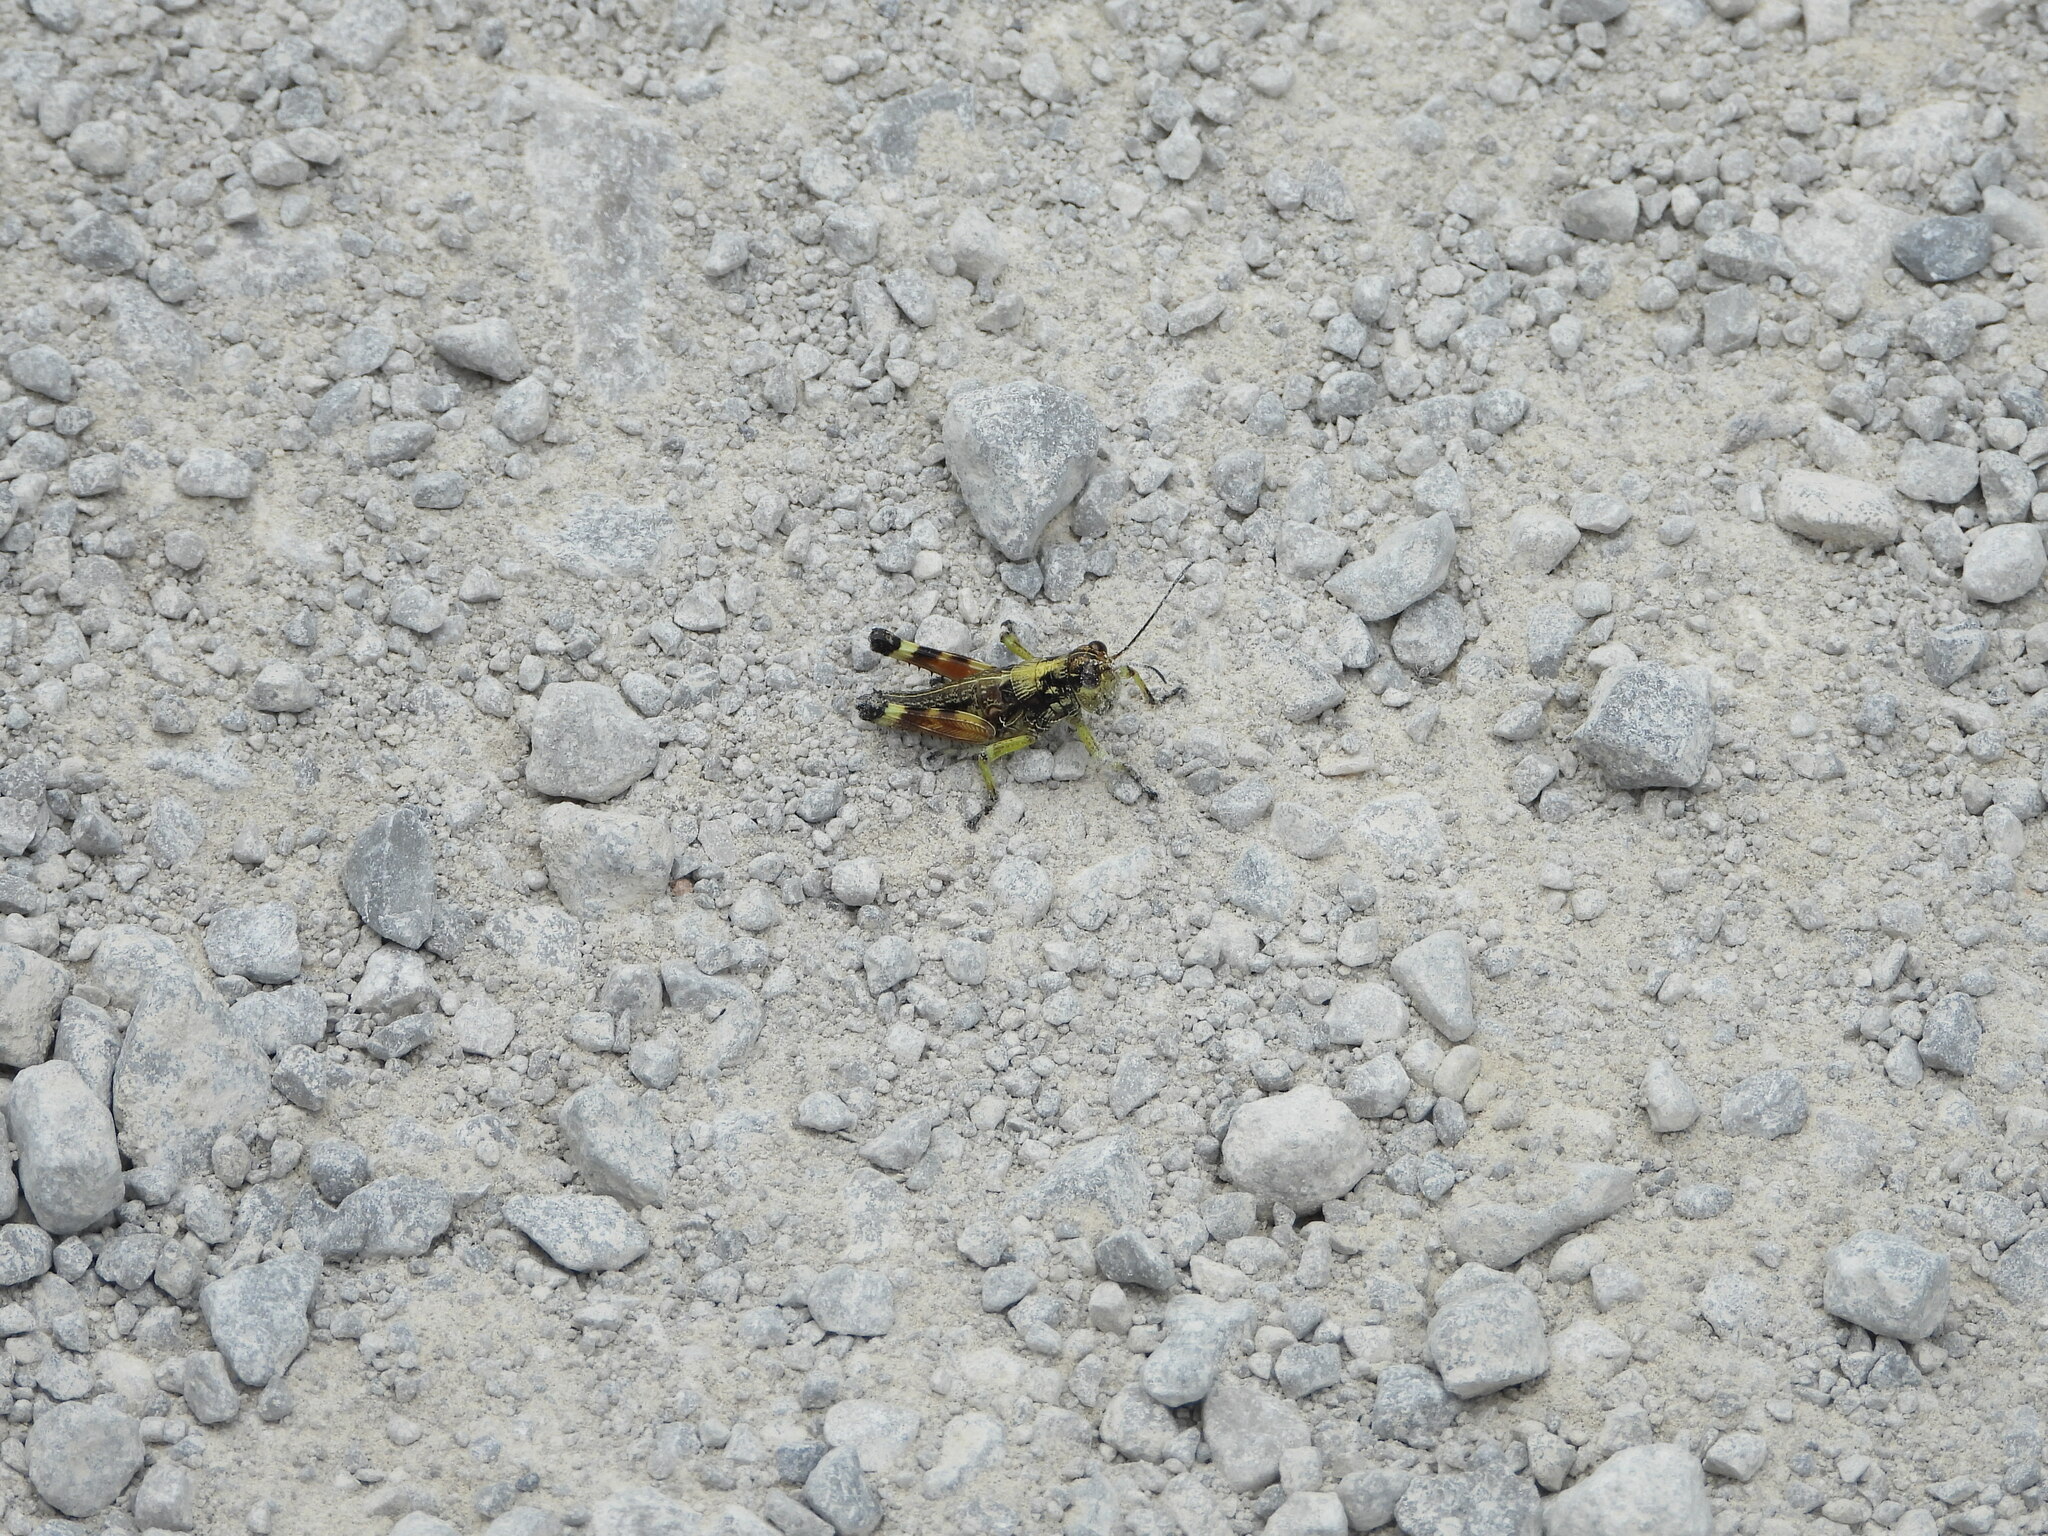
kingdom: Animalia
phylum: Arthropoda
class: Insecta
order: Orthoptera
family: Acrididae
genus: Dendrotettix
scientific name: Dendrotettix quercus
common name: Post oak grasshopper
